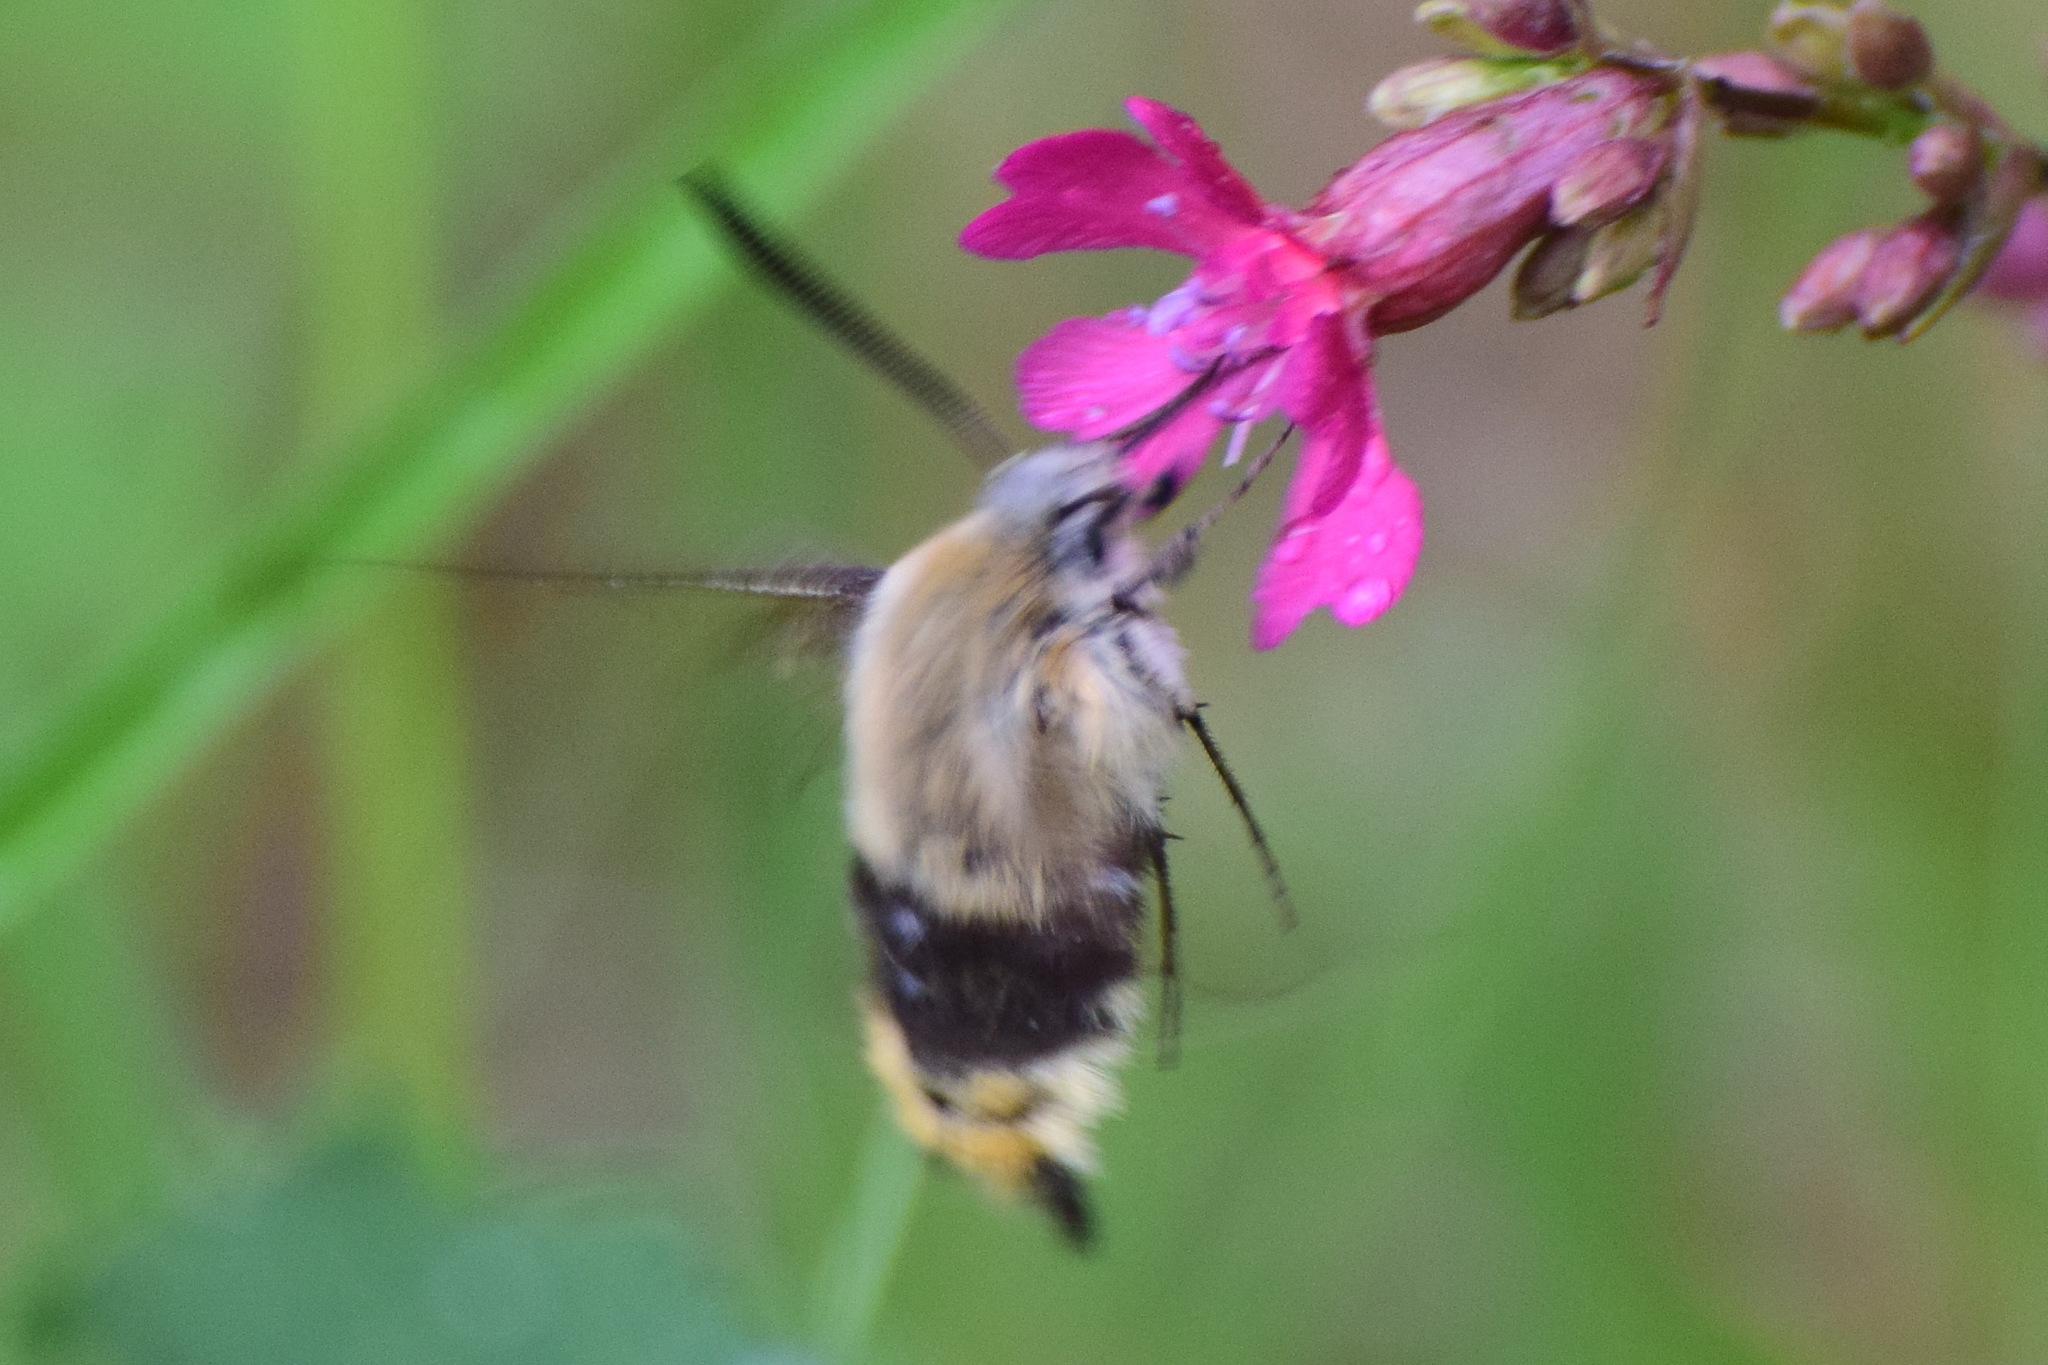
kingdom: Animalia
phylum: Arthropoda
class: Insecta
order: Lepidoptera
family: Sphingidae
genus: Hemaris
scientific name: Hemaris tityus
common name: Narrow-bordered bee hawk-moth
